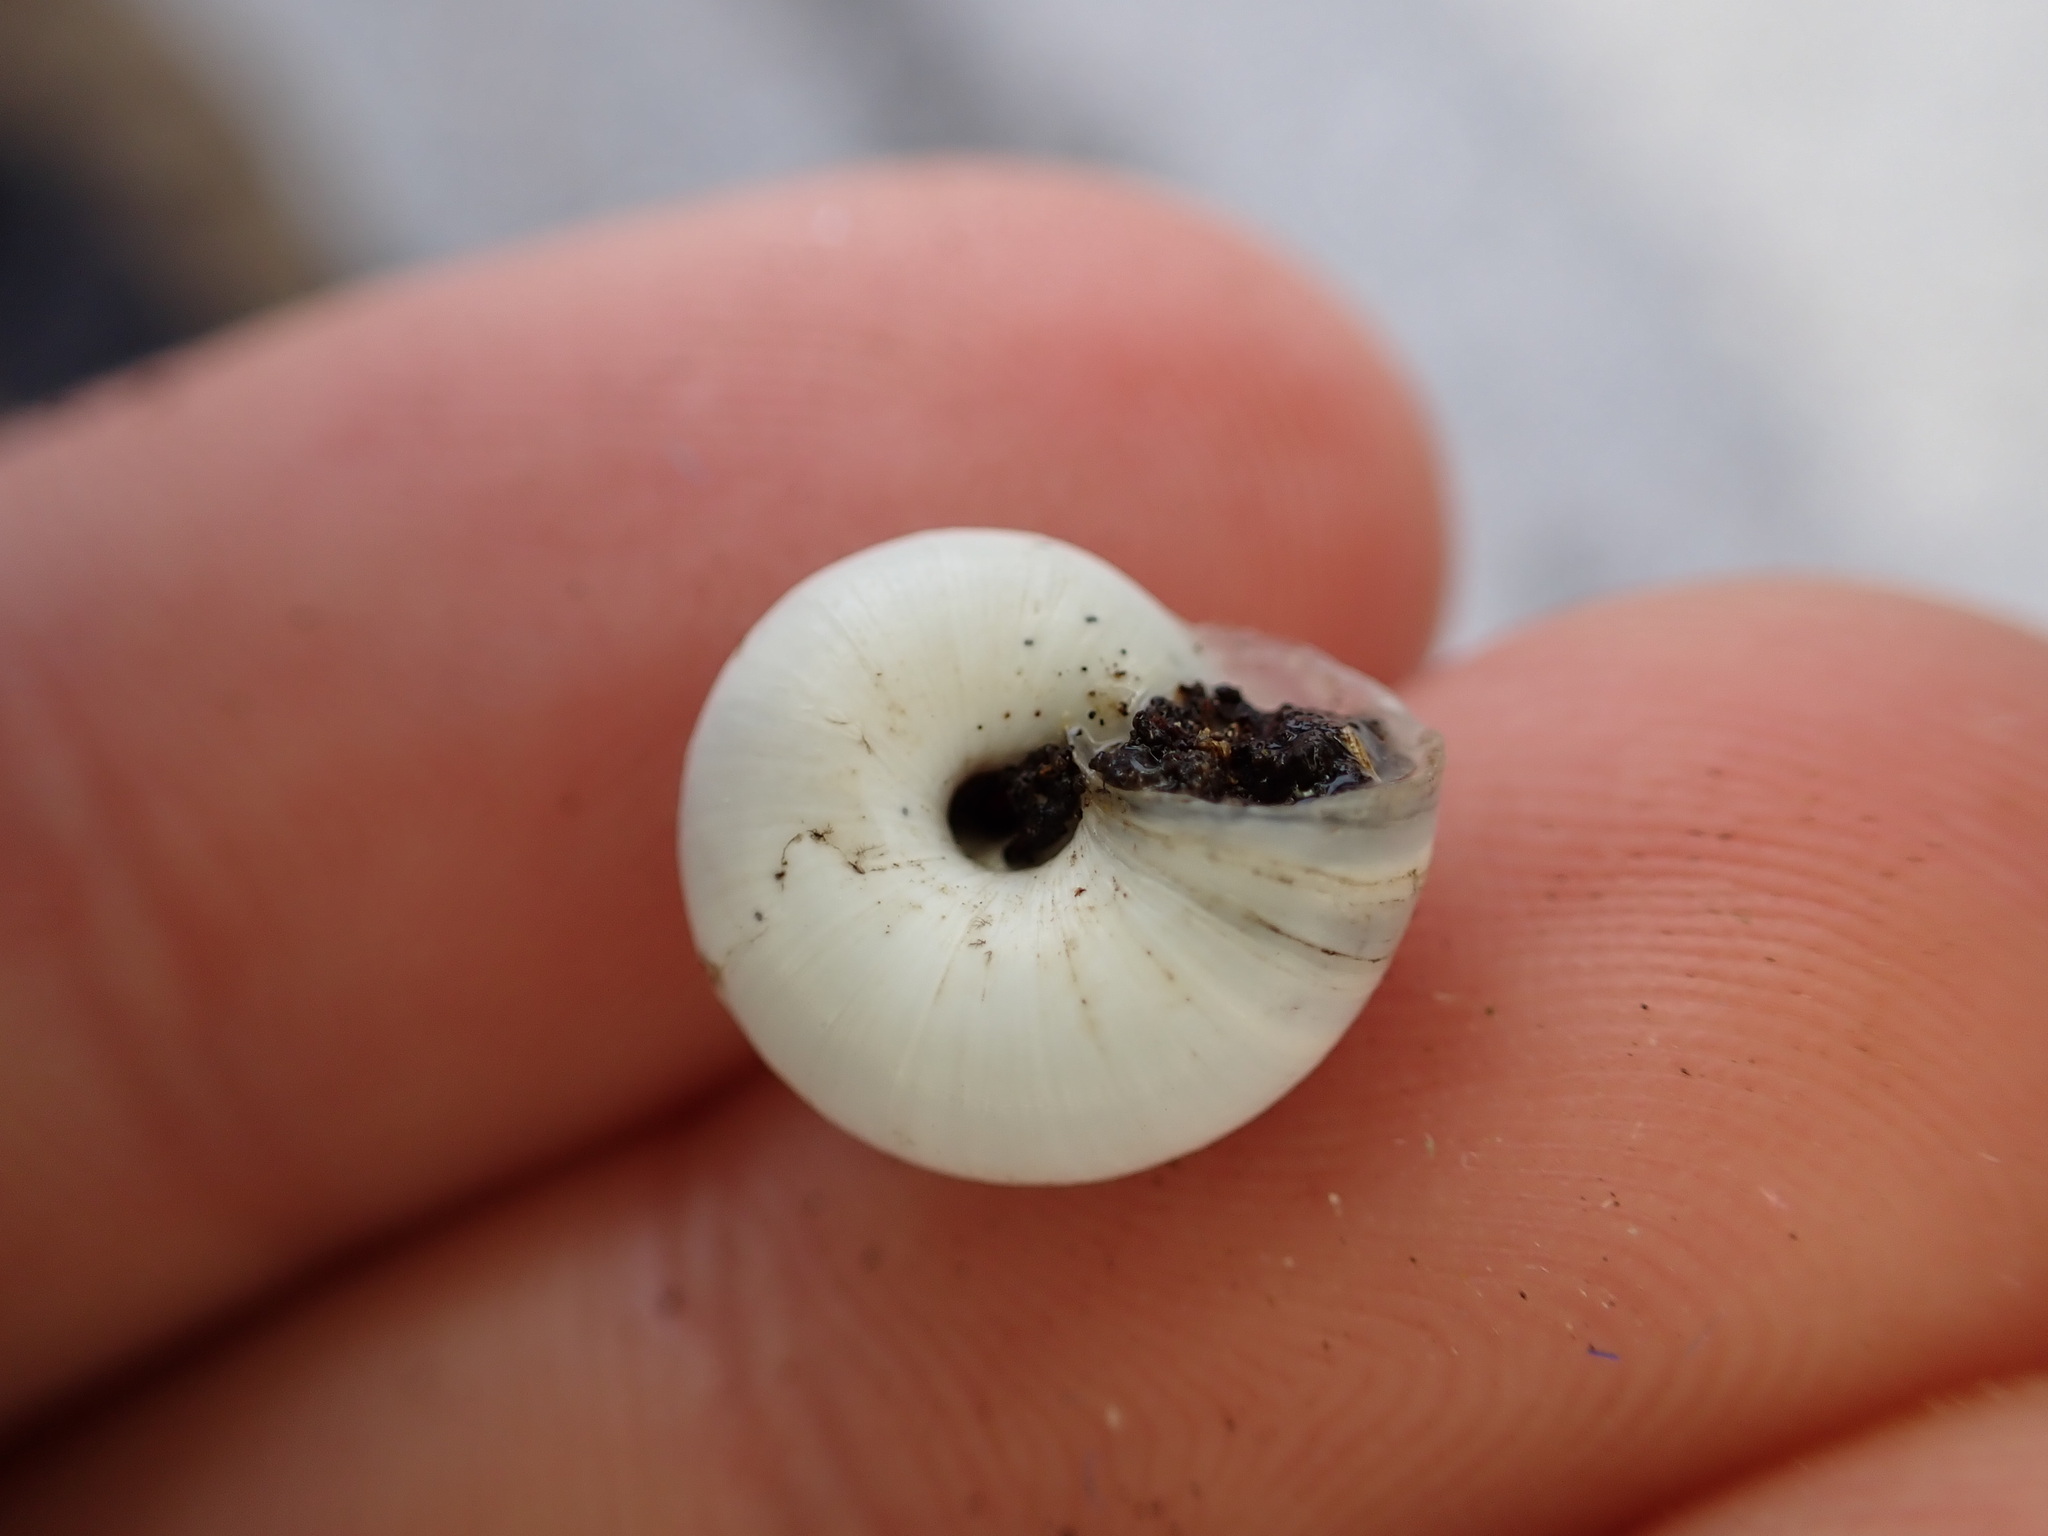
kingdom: Animalia
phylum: Mollusca
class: Gastropoda
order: Stylommatophora
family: Geomitridae
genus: Xeropicta
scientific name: Xeropicta derbentina
